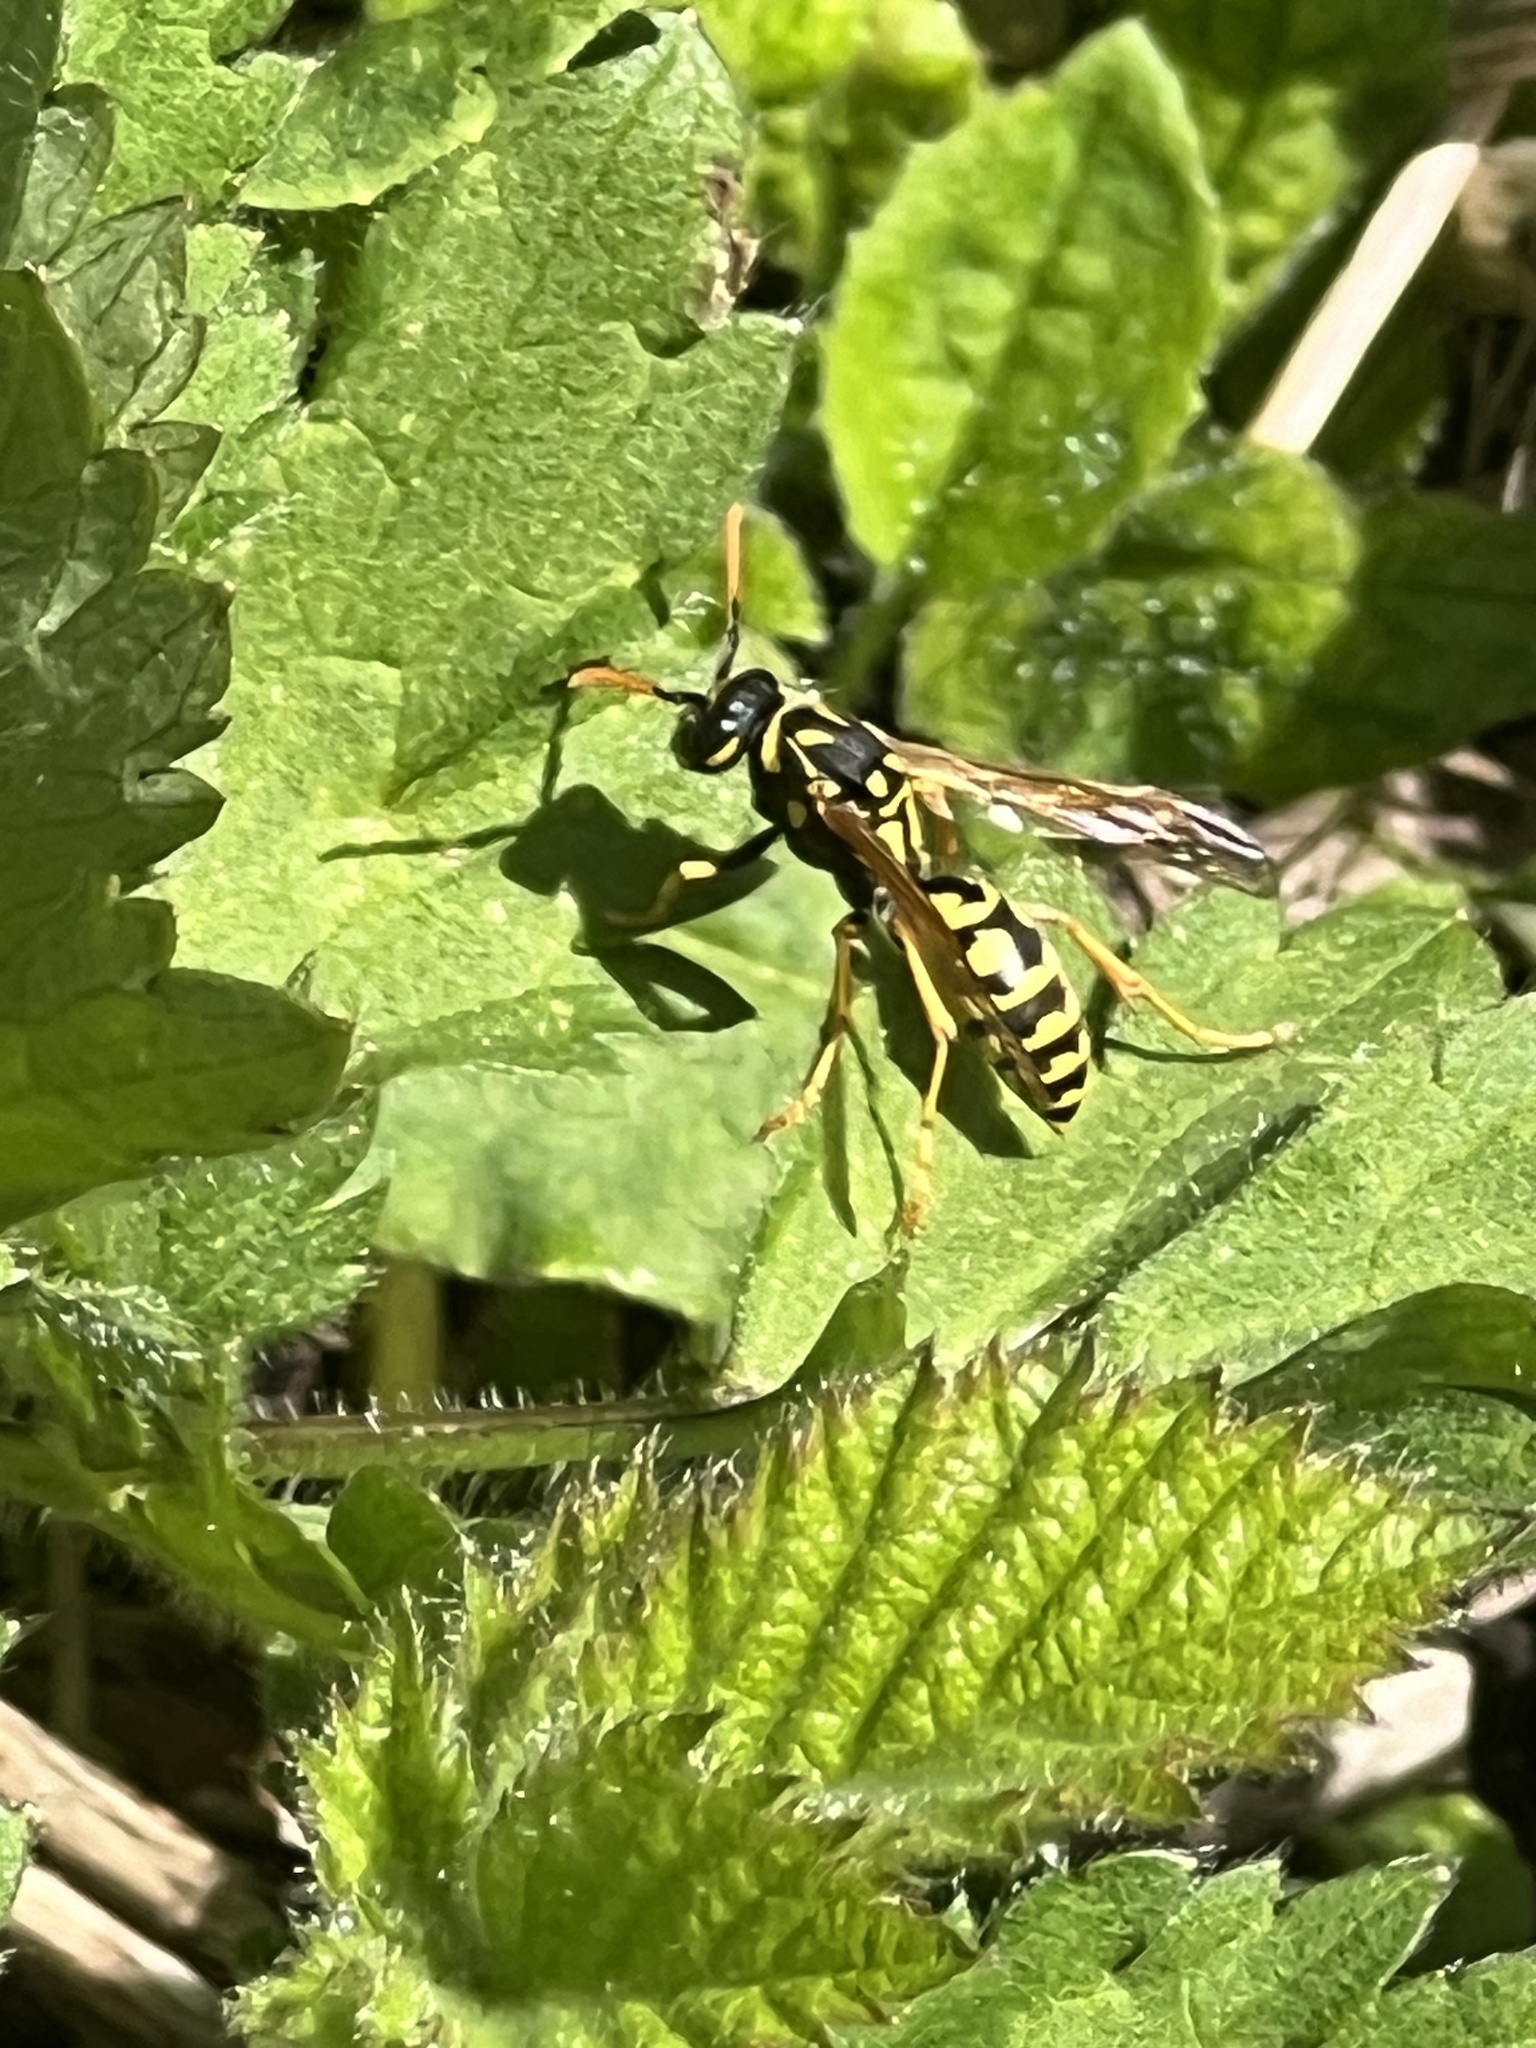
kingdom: Animalia
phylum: Arthropoda
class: Insecta
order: Hymenoptera
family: Eumenidae
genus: Polistes
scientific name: Polistes dominula
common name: Paper wasp
